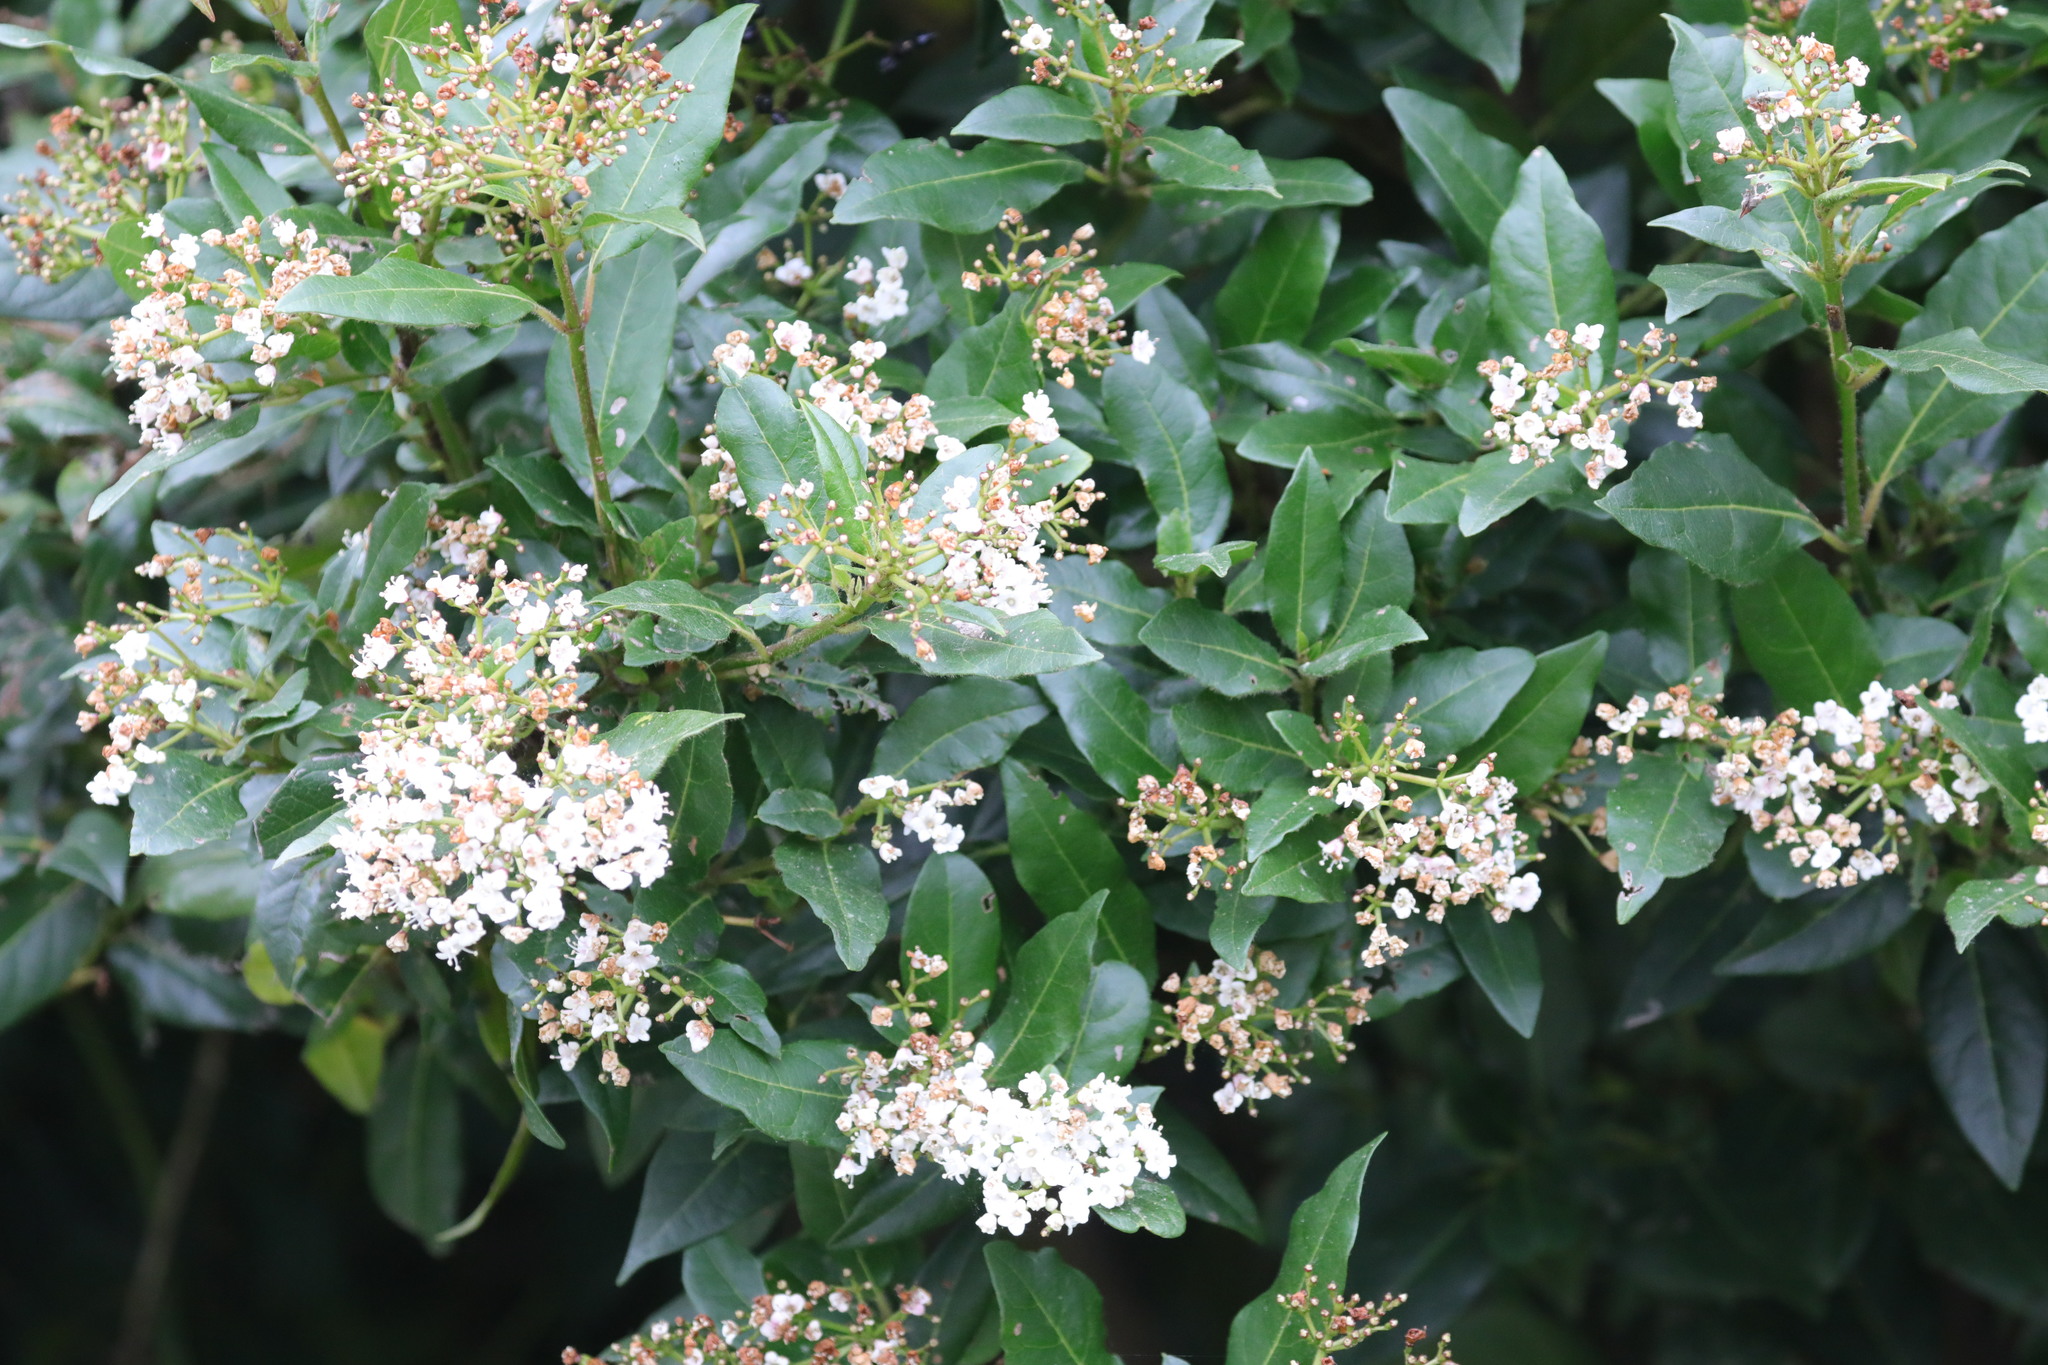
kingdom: Plantae
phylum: Tracheophyta
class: Magnoliopsida
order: Dipsacales
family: Viburnaceae
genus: Viburnum
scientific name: Viburnum tinus
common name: Laurustinus
